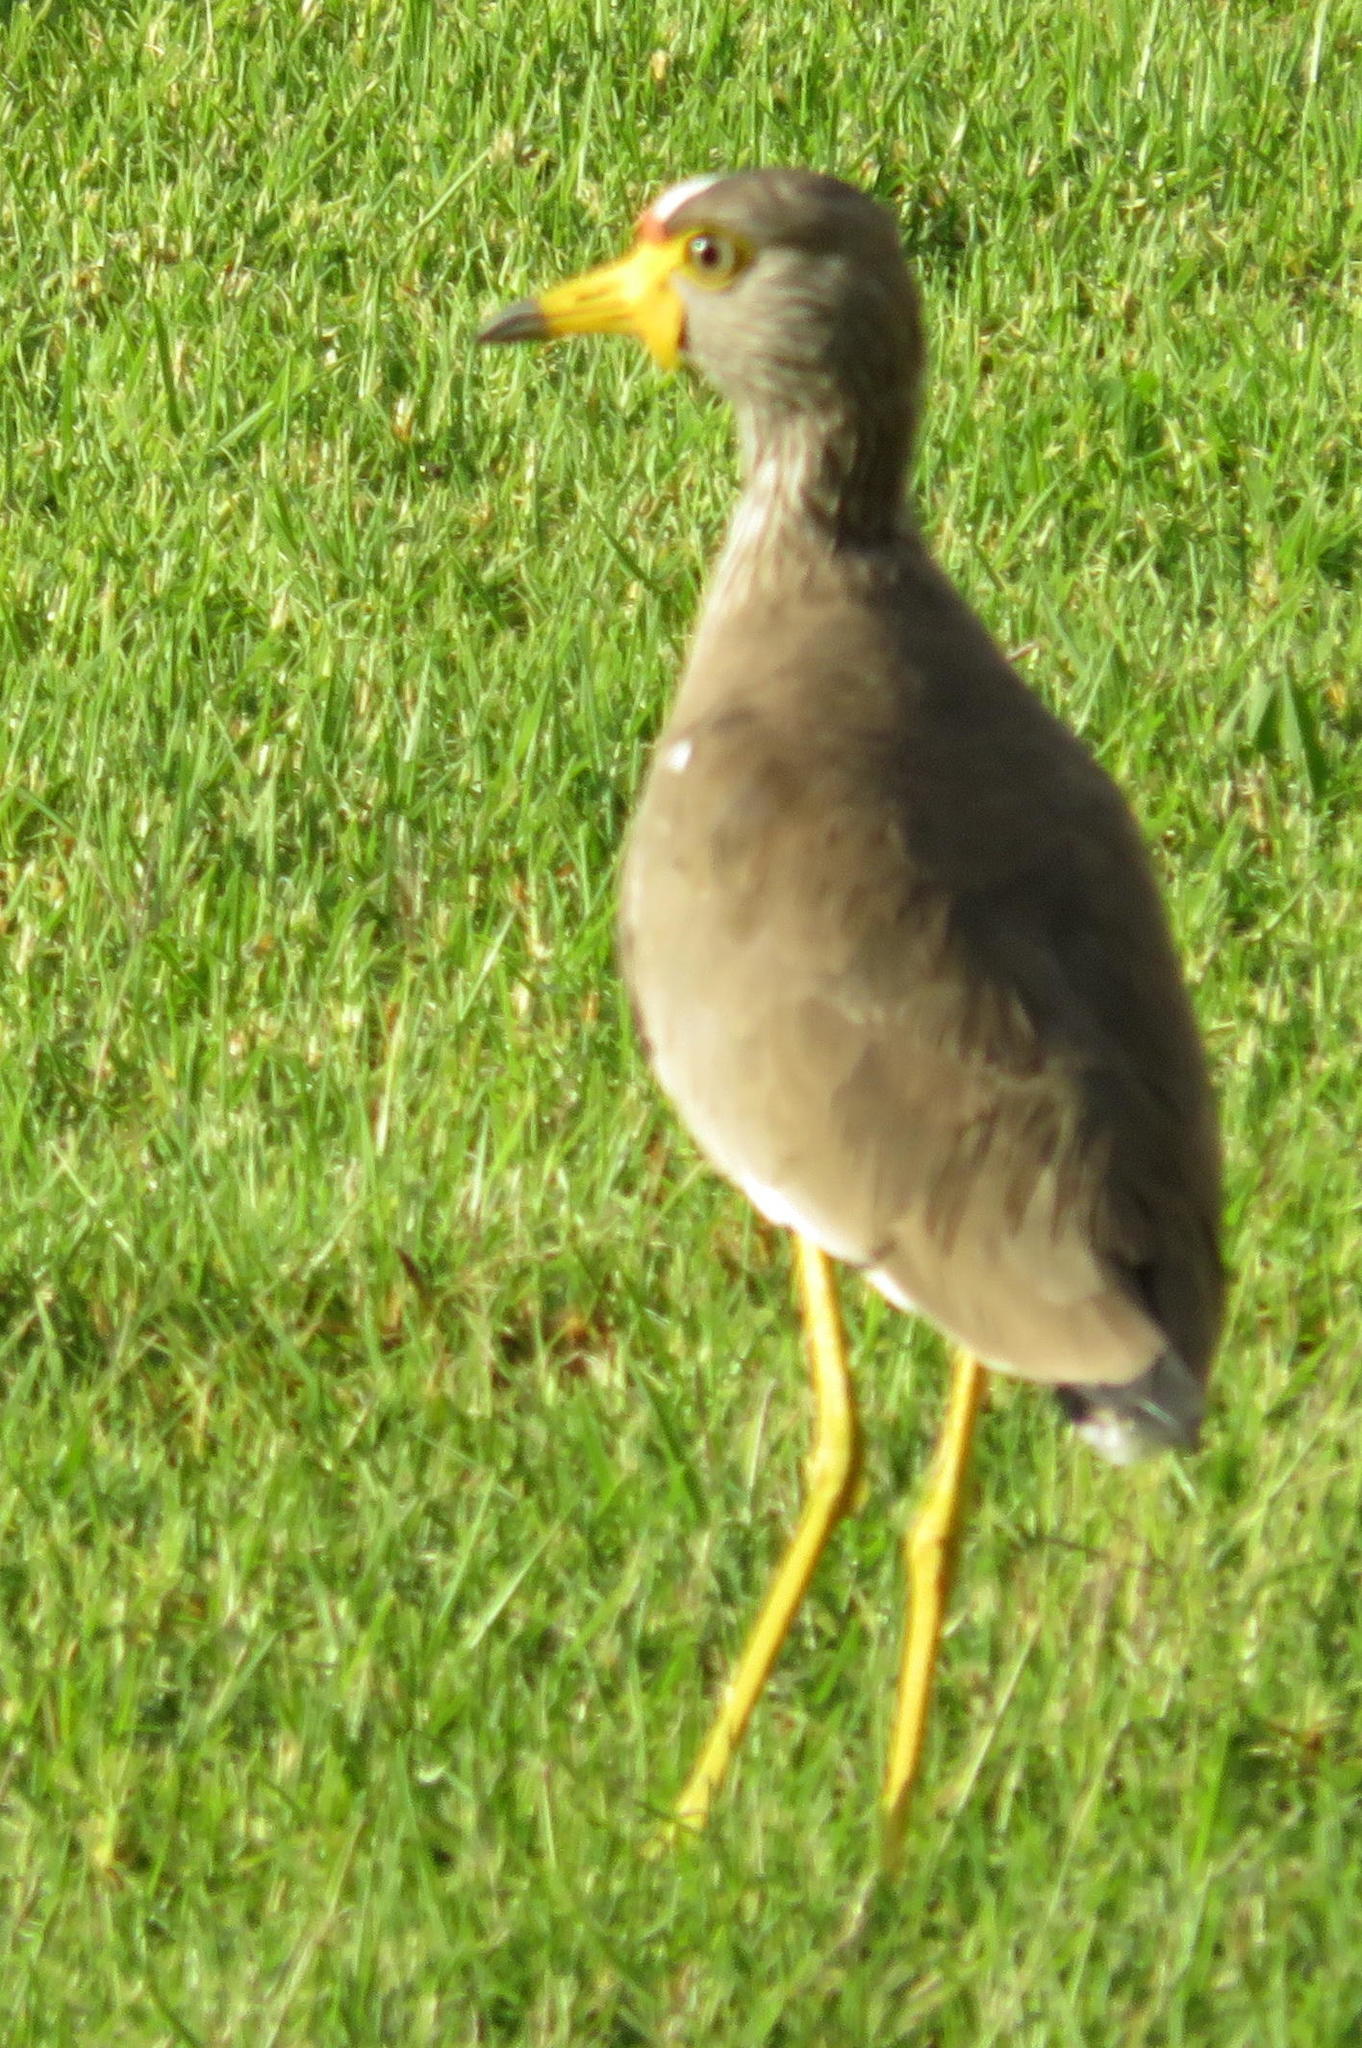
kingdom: Animalia
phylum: Chordata
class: Aves
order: Charadriiformes
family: Charadriidae
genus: Vanellus
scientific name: Vanellus senegallus
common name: African wattled lapwing
